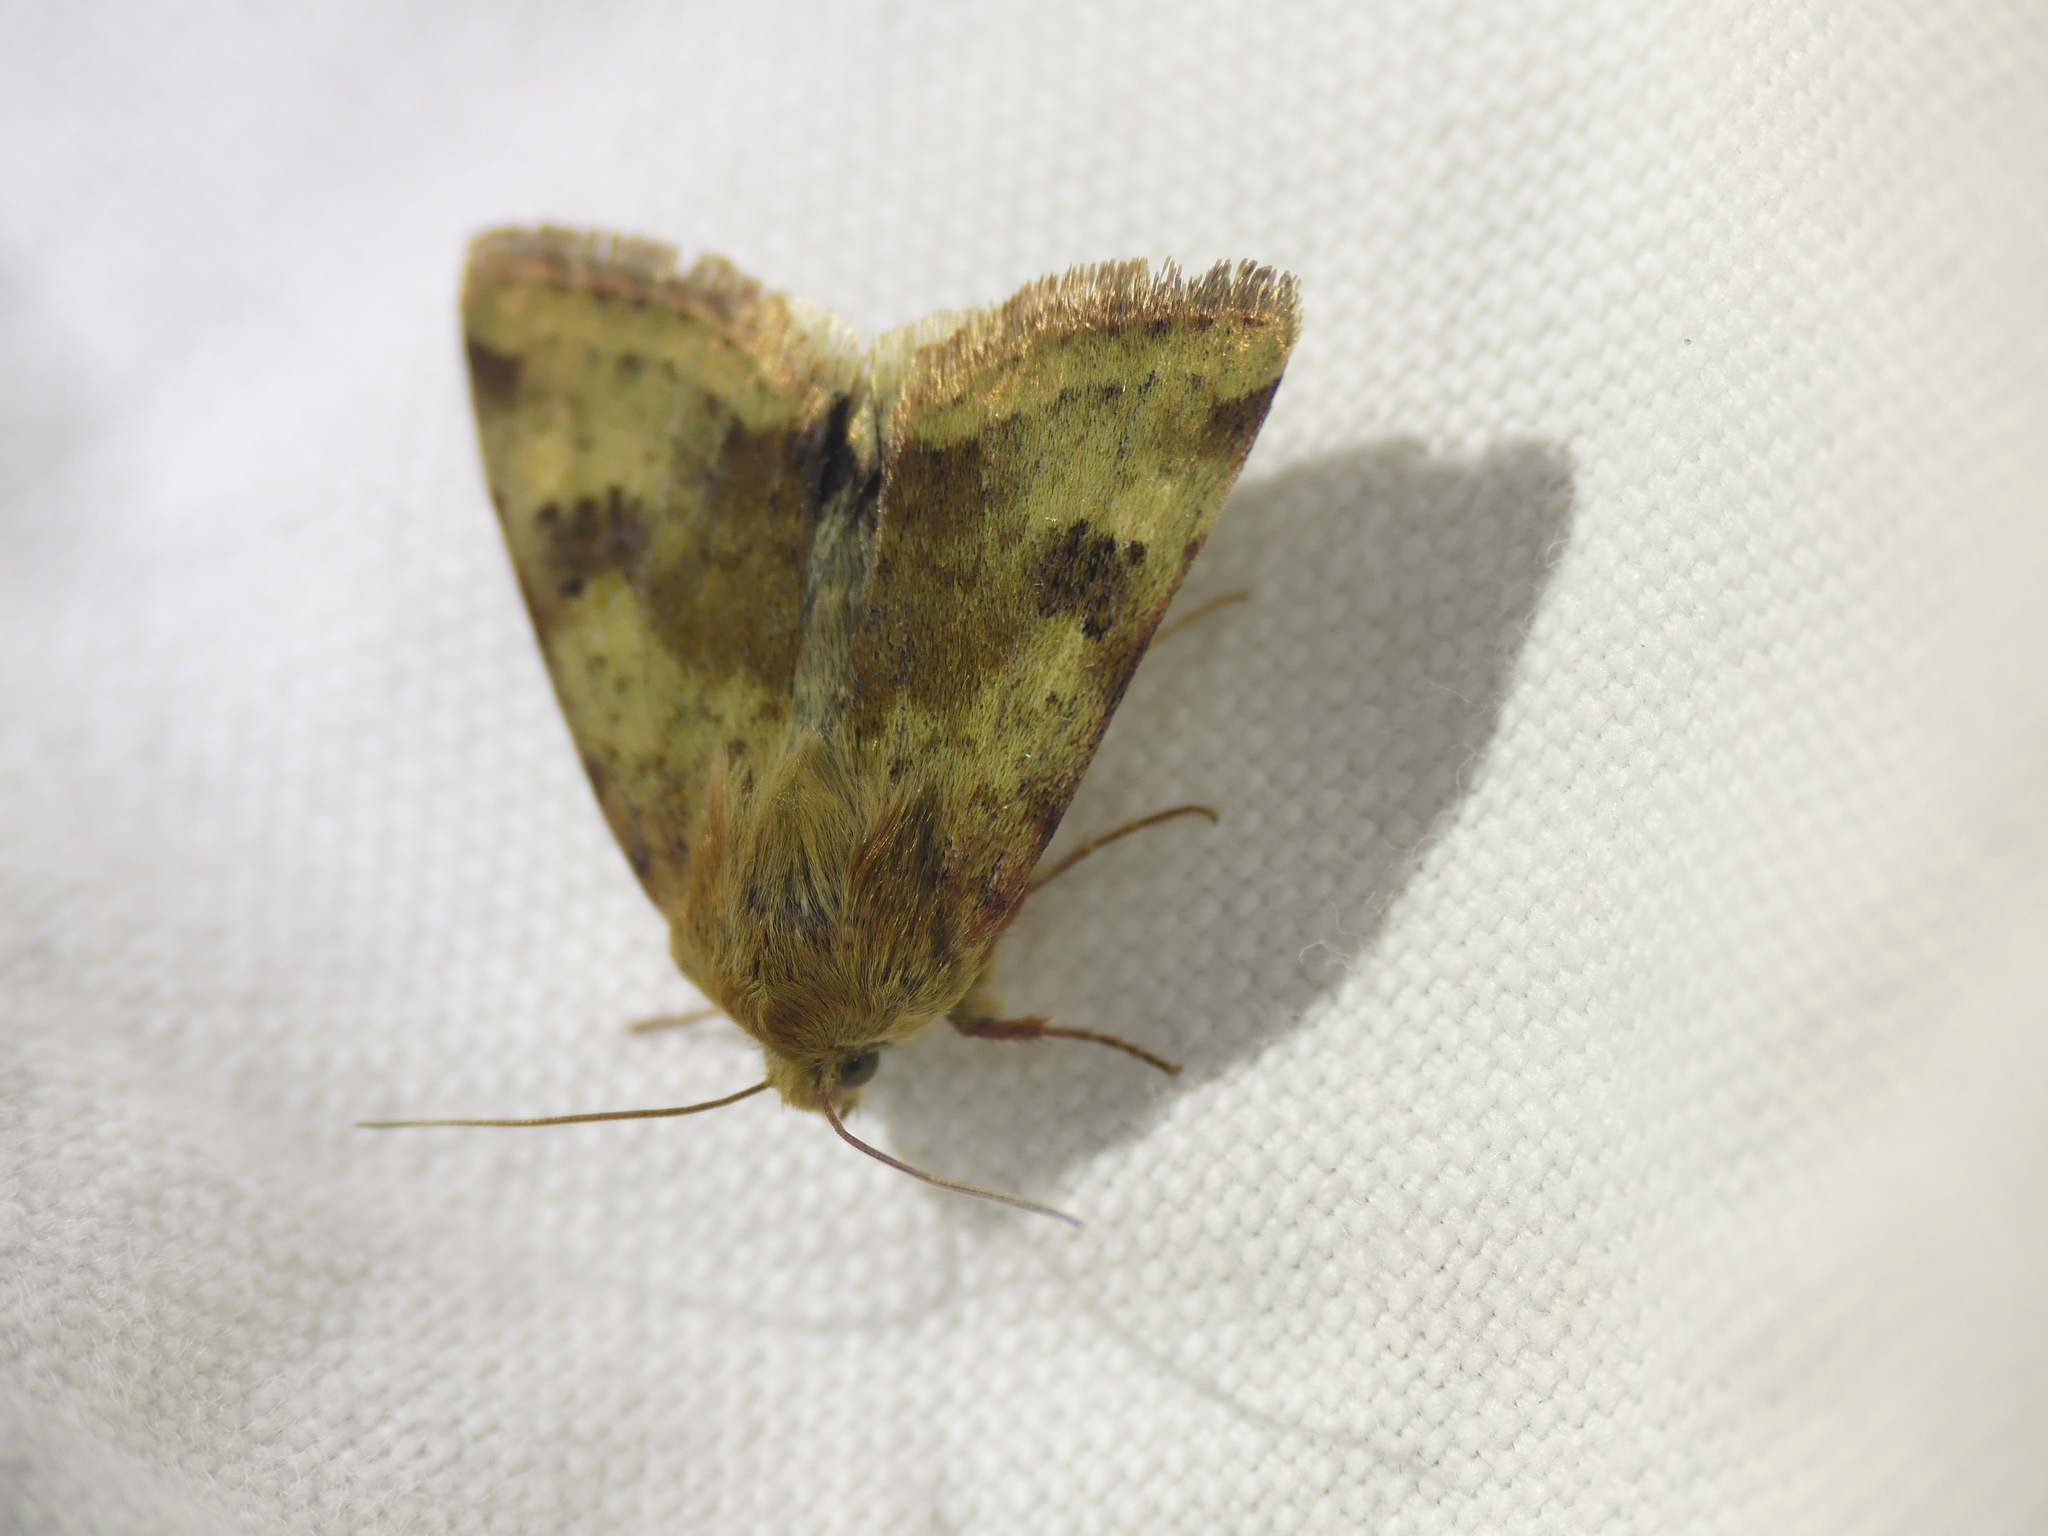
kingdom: Animalia
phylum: Arthropoda
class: Insecta
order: Lepidoptera
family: Noctuidae
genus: Heliothis
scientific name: Heliothis viriplaca
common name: Marbled clover
